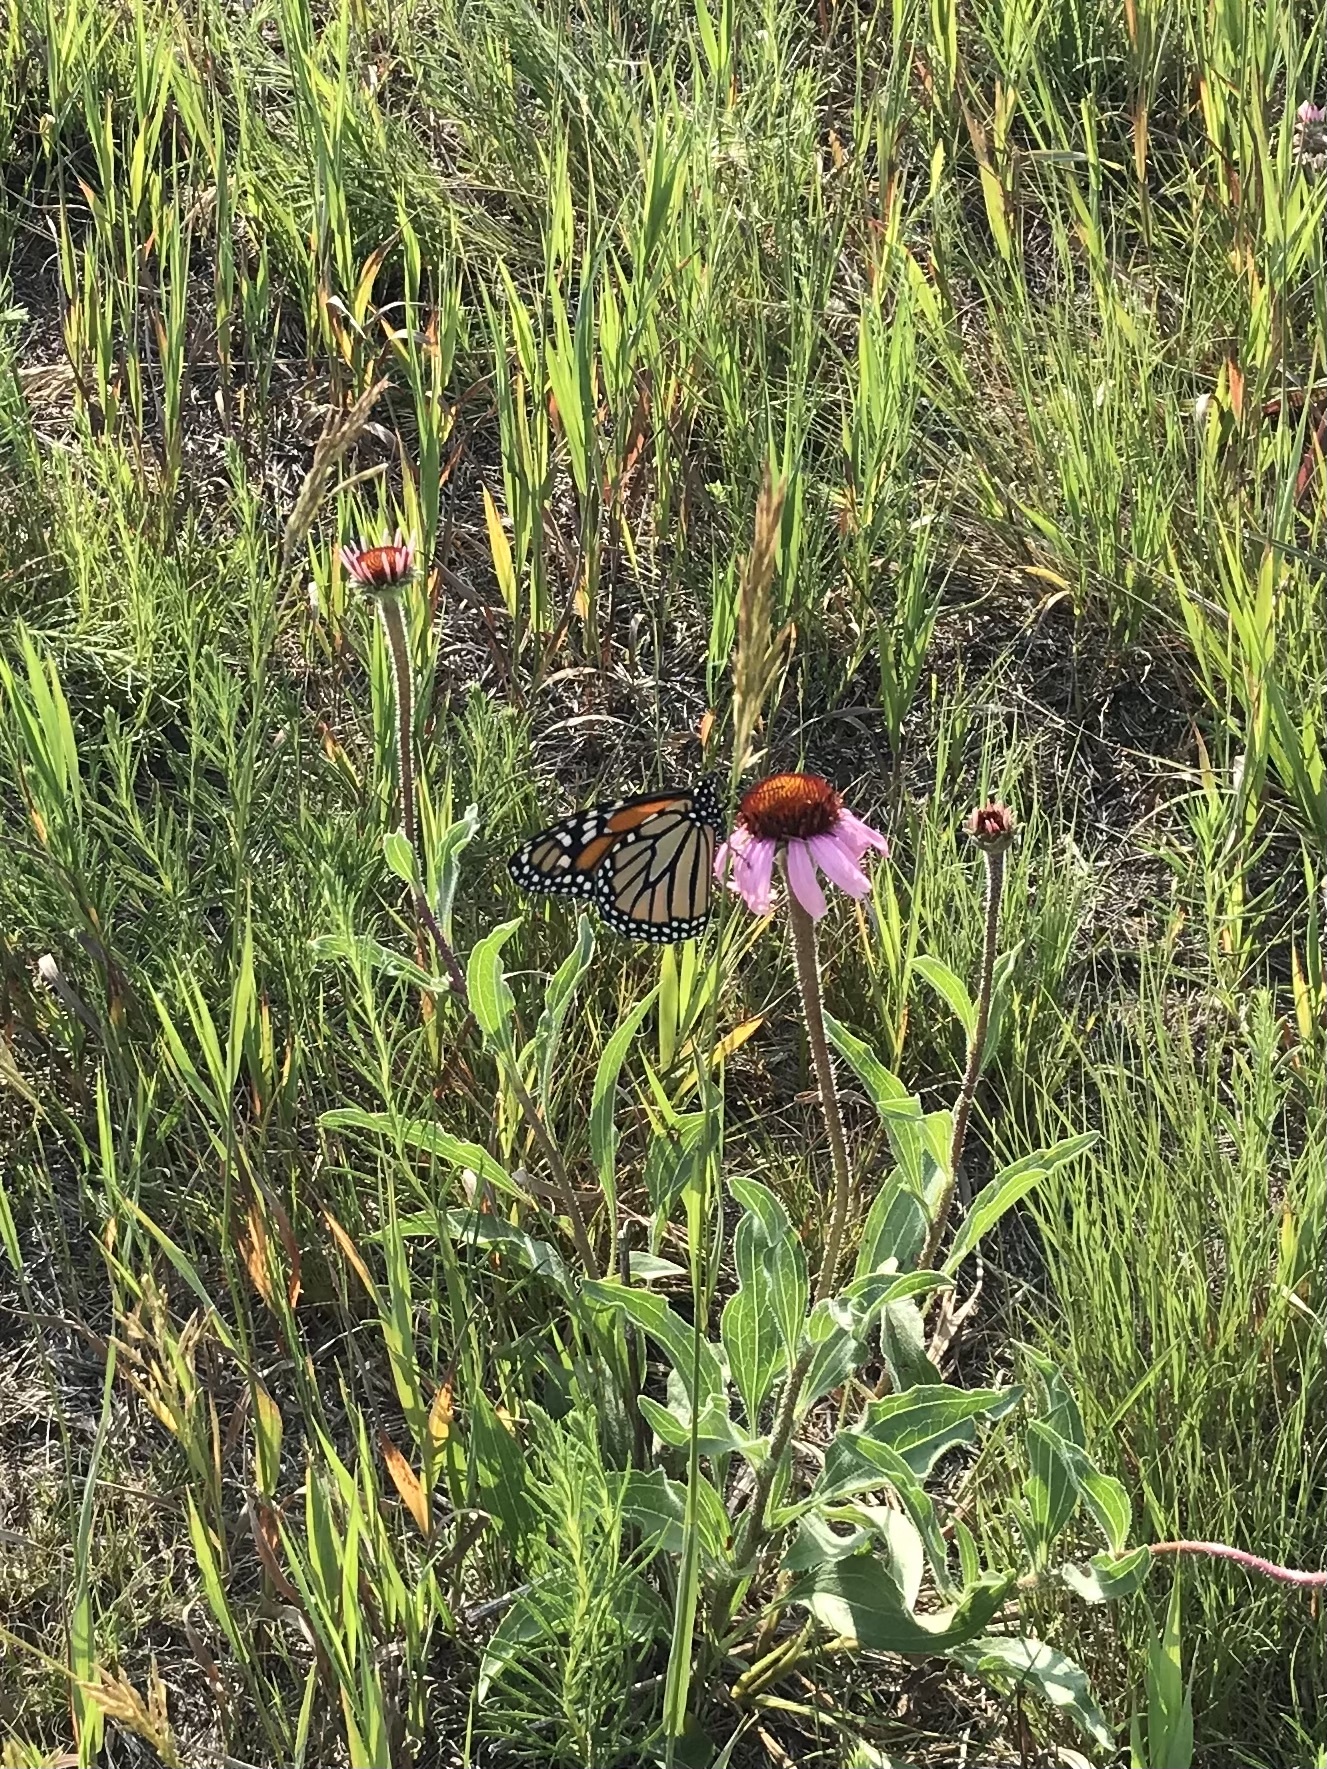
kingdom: Animalia
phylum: Arthropoda
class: Insecta
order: Lepidoptera
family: Nymphalidae
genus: Danaus
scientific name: Danaus plexippus
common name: Monarch
